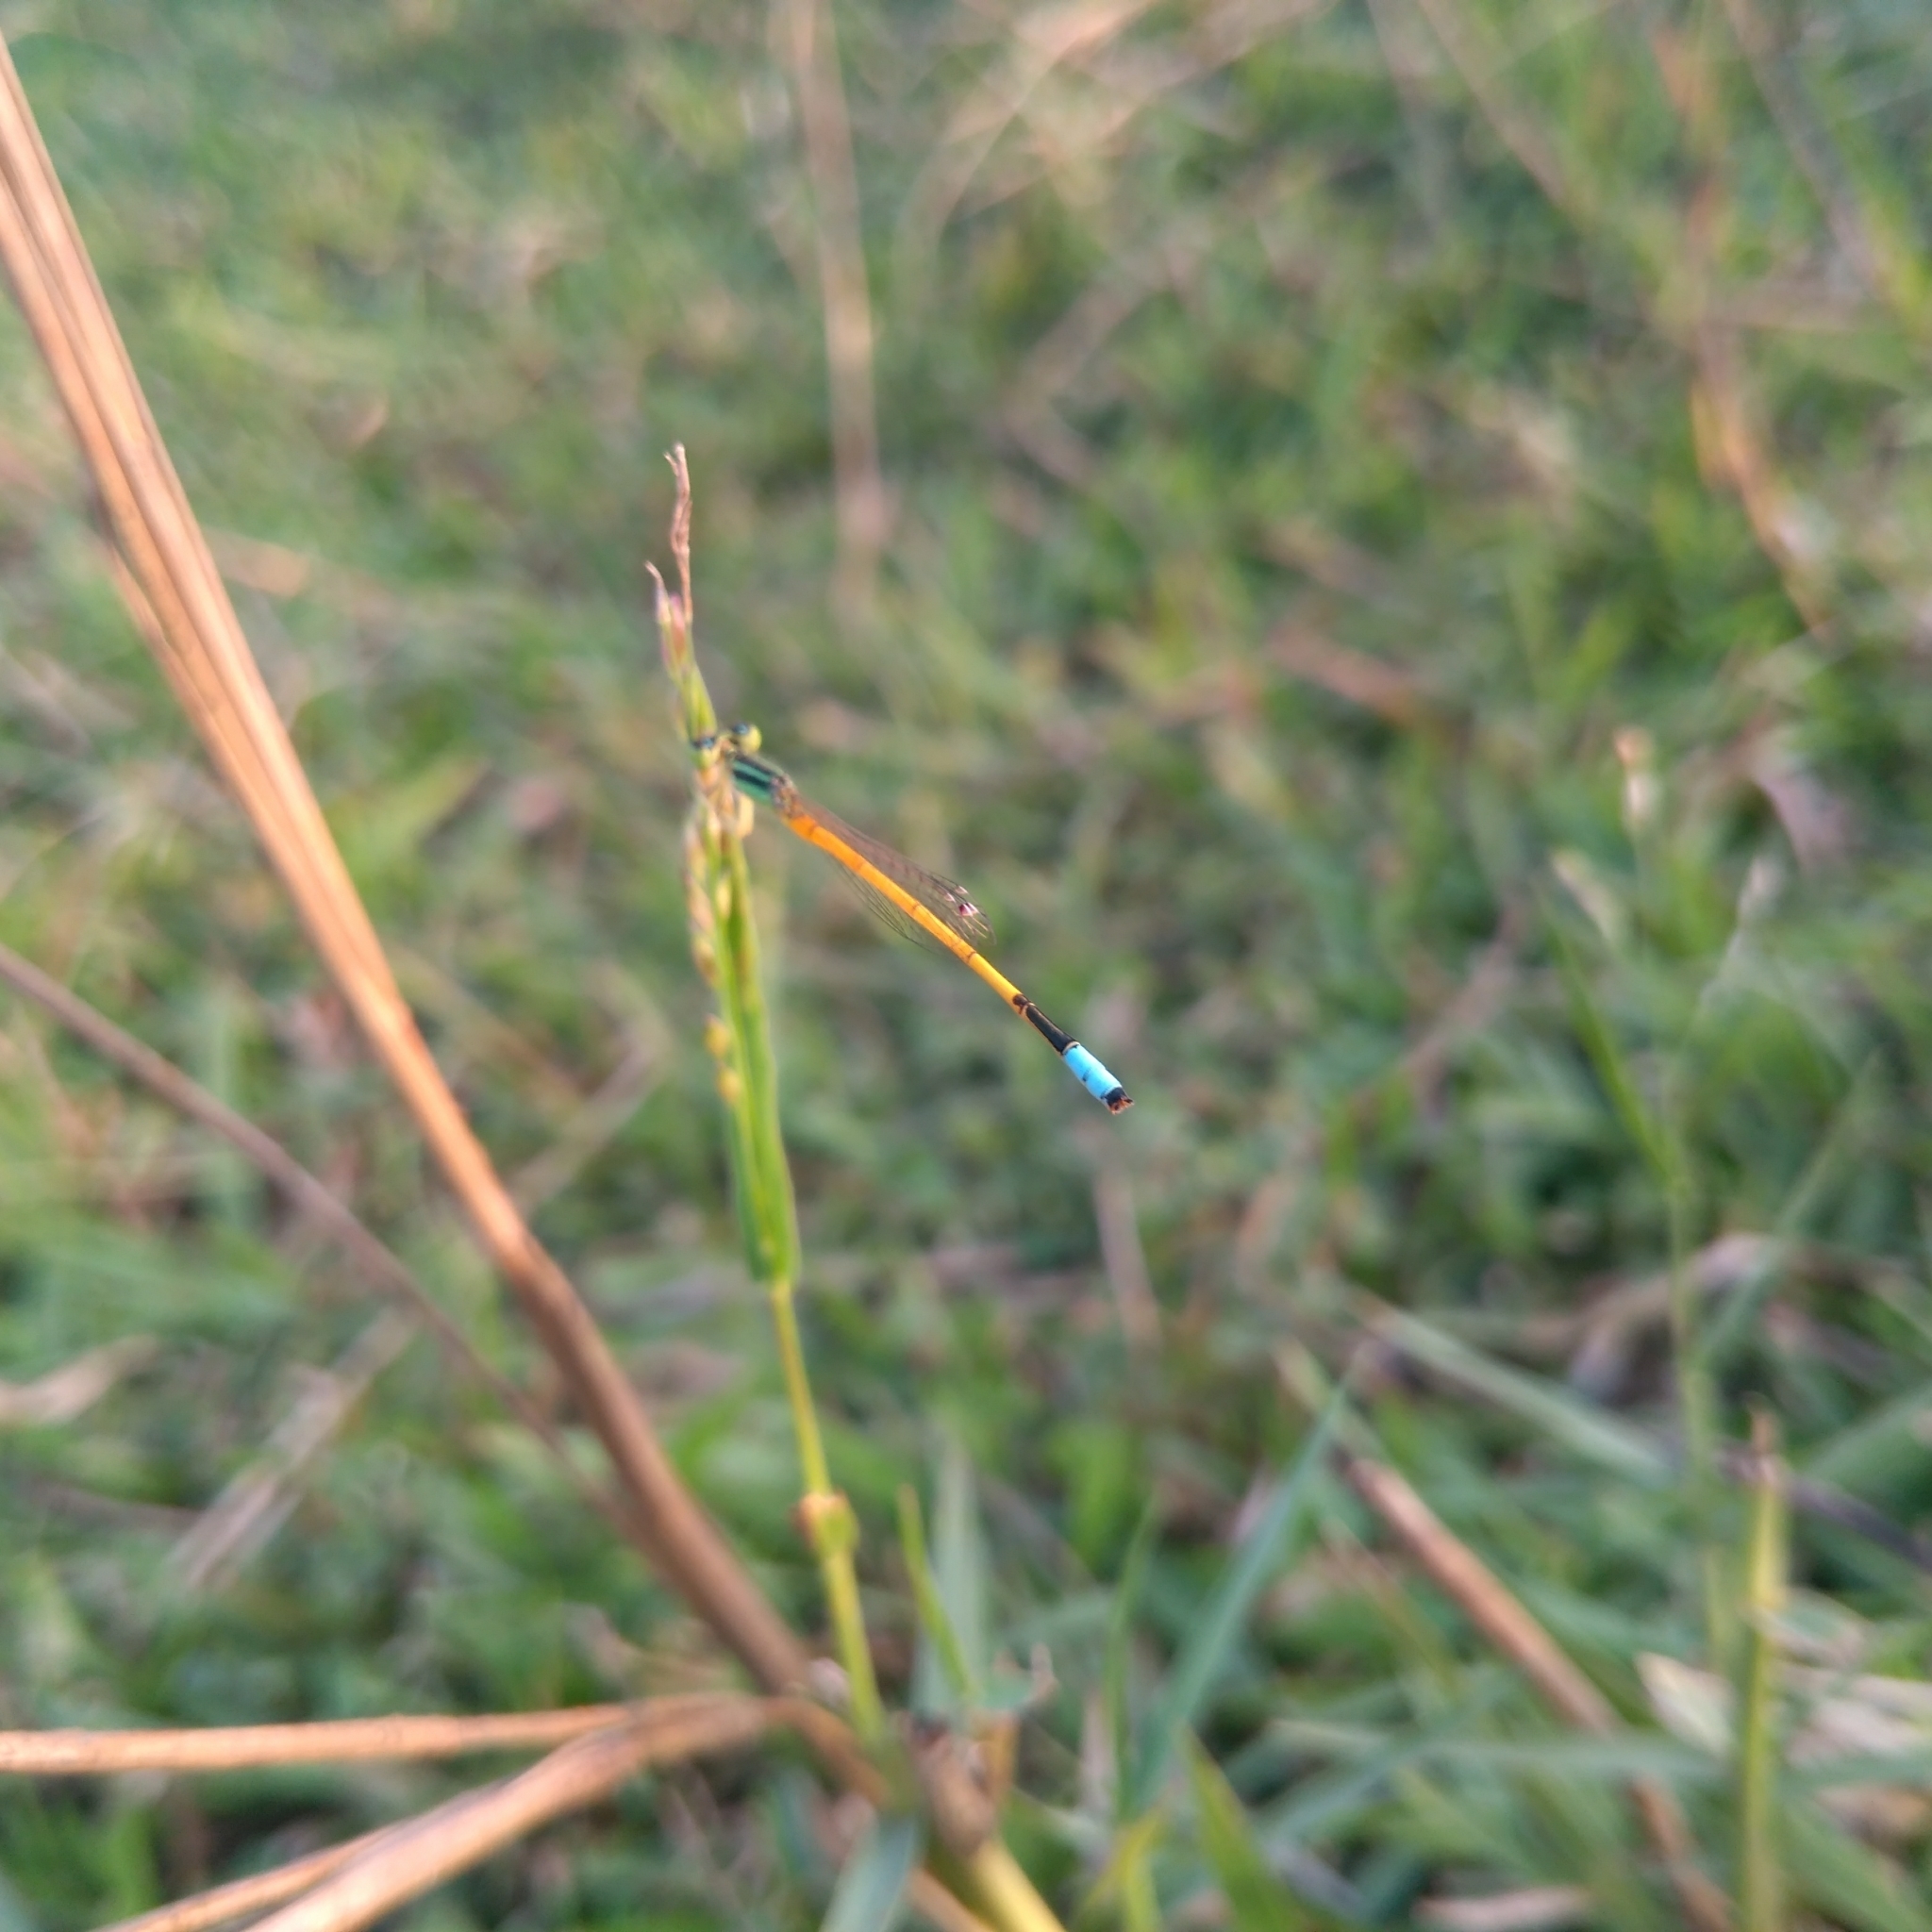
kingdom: Animalia
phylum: Arthropoda
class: Insecta
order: Odonata
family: Coenagrionidae
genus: Ischnura
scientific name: Ischnura rubilio
